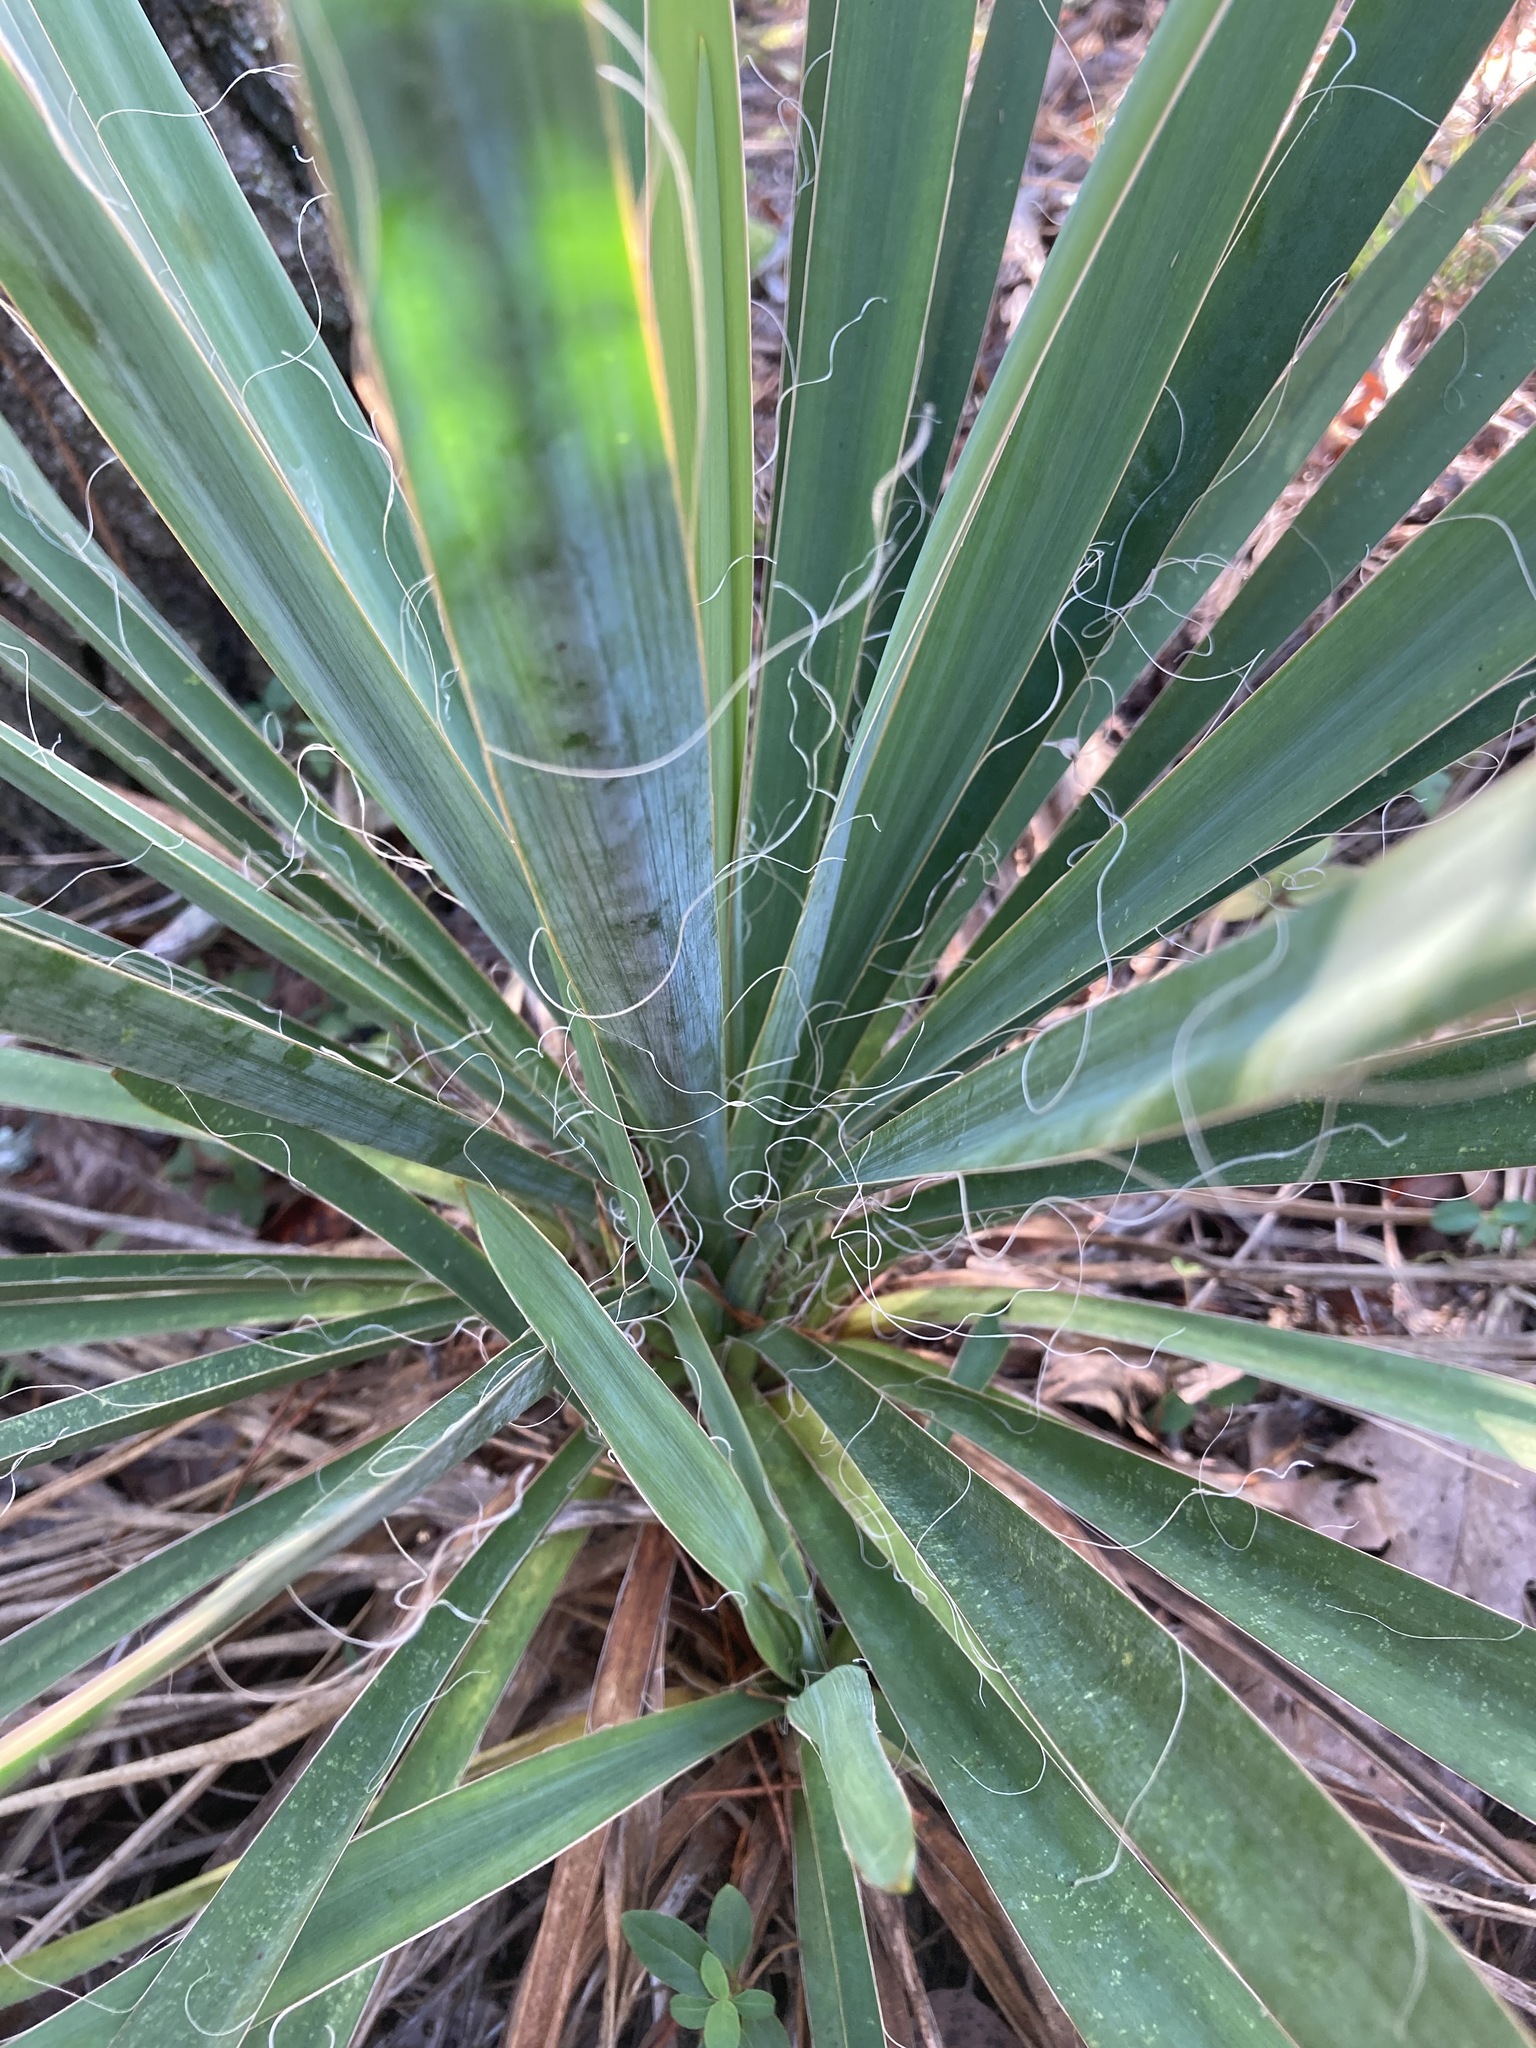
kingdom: Plantae
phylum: Tracheophyta
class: Liliopsida
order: Asparagales
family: Asparagaceae
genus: Yucca
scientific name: Yucca filamentosa
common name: Adam's-needle
